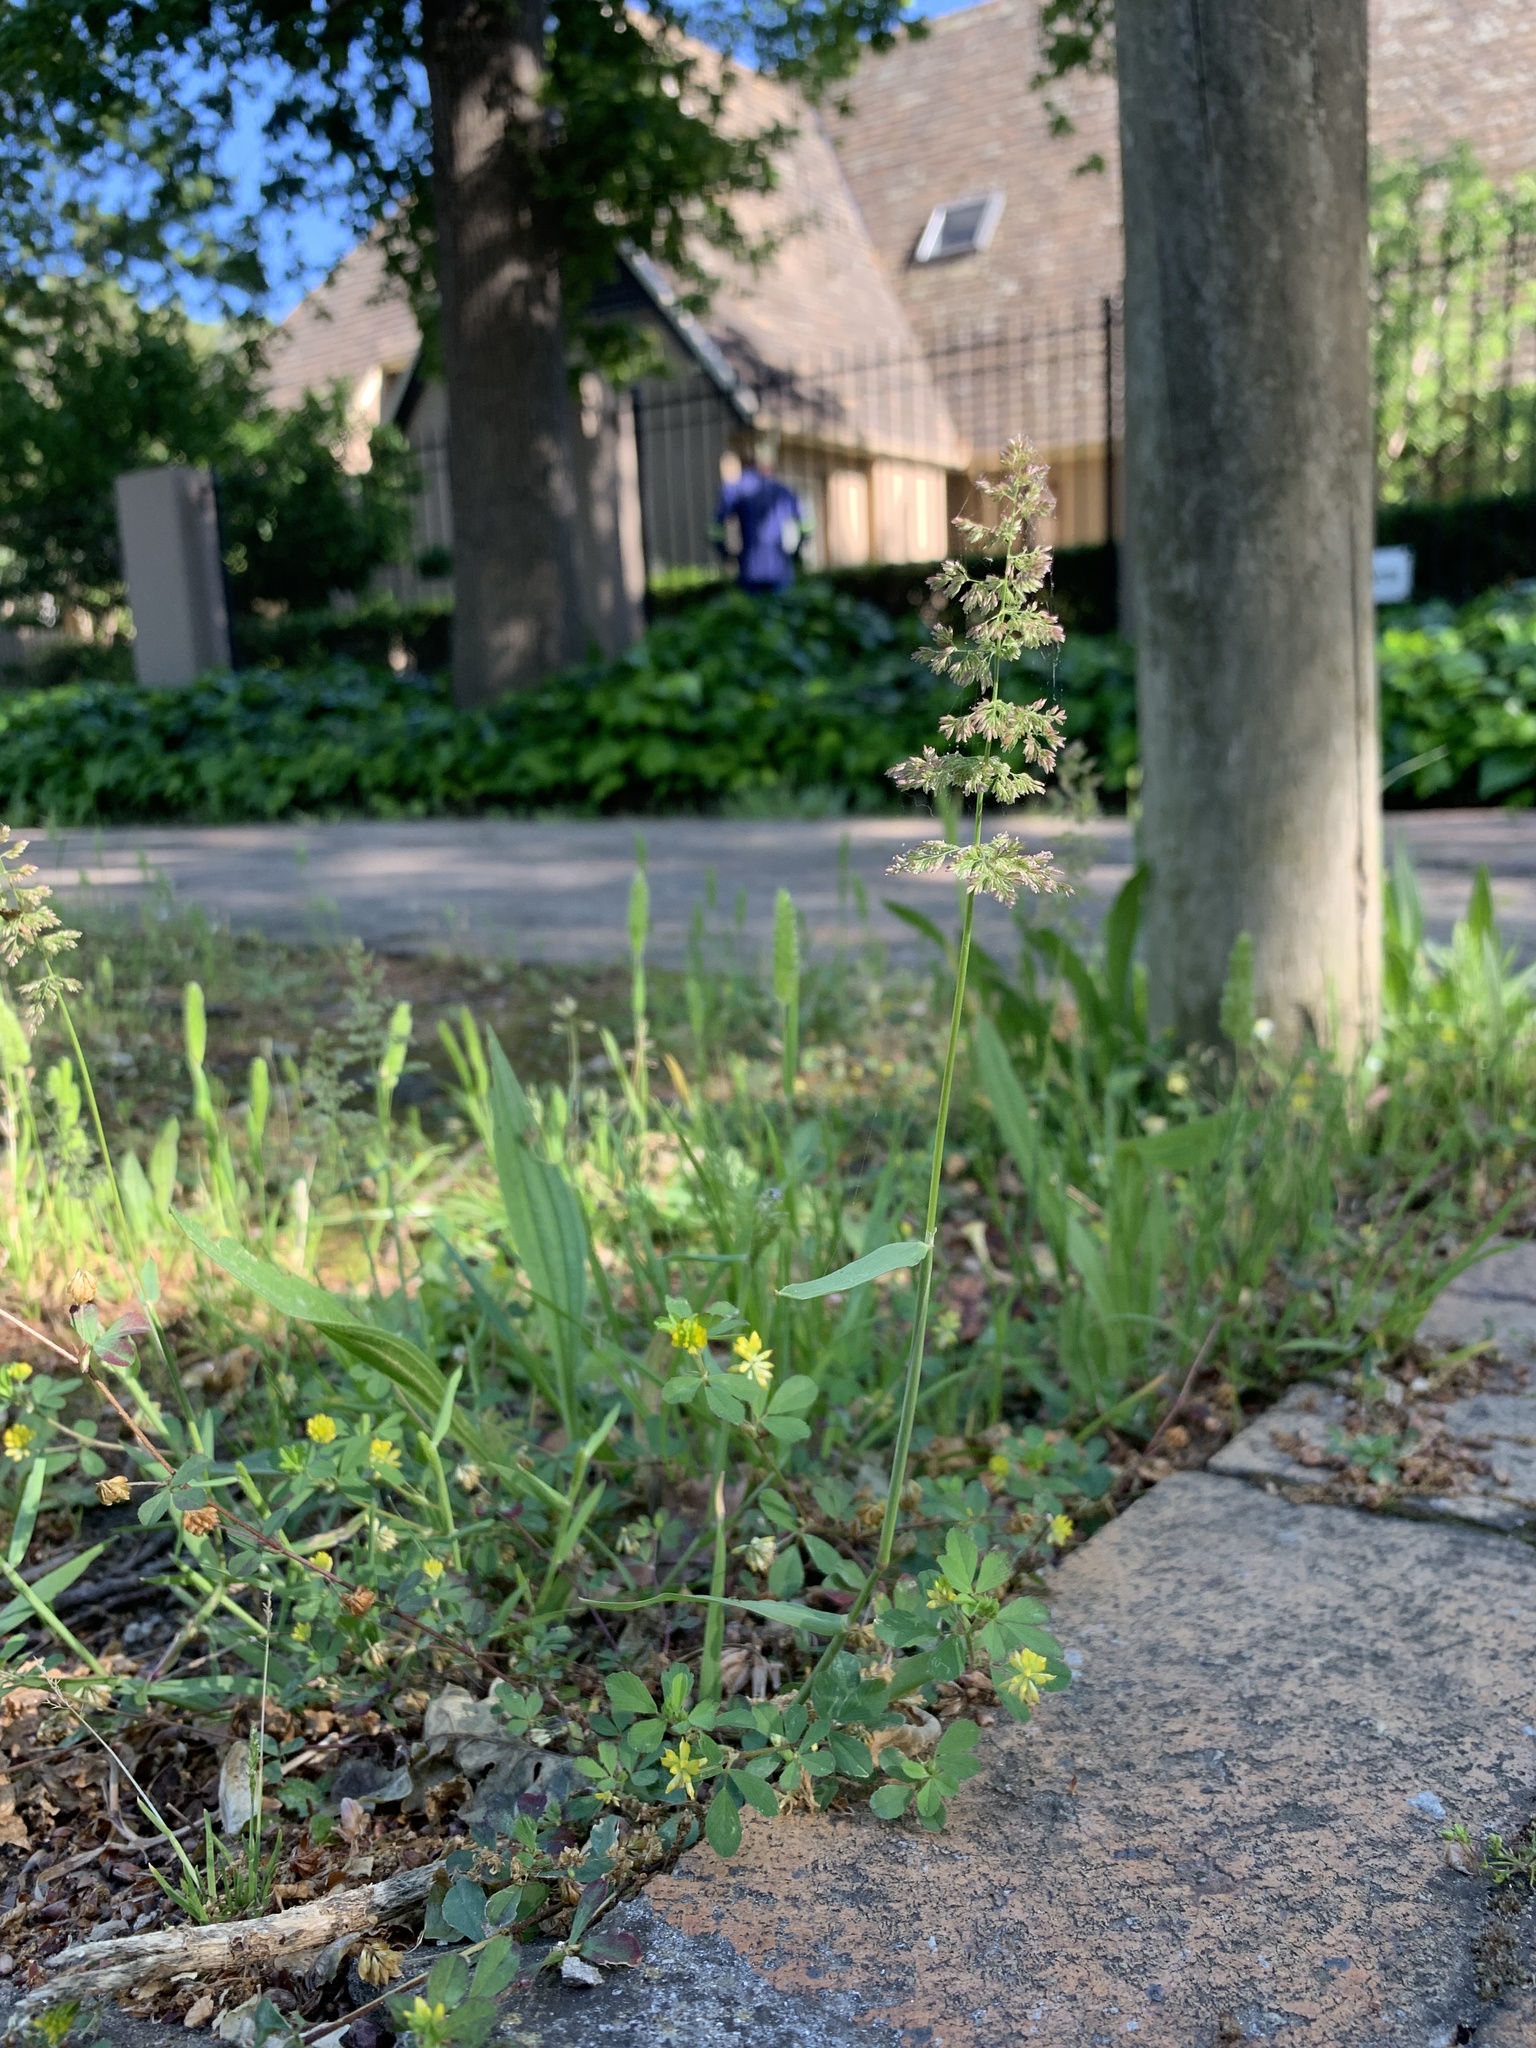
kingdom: Plantae
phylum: Tracheophyta
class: Liliopsida
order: Poales
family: Poaceae
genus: Polypogon
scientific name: Polypogon viridis
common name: Water bent
